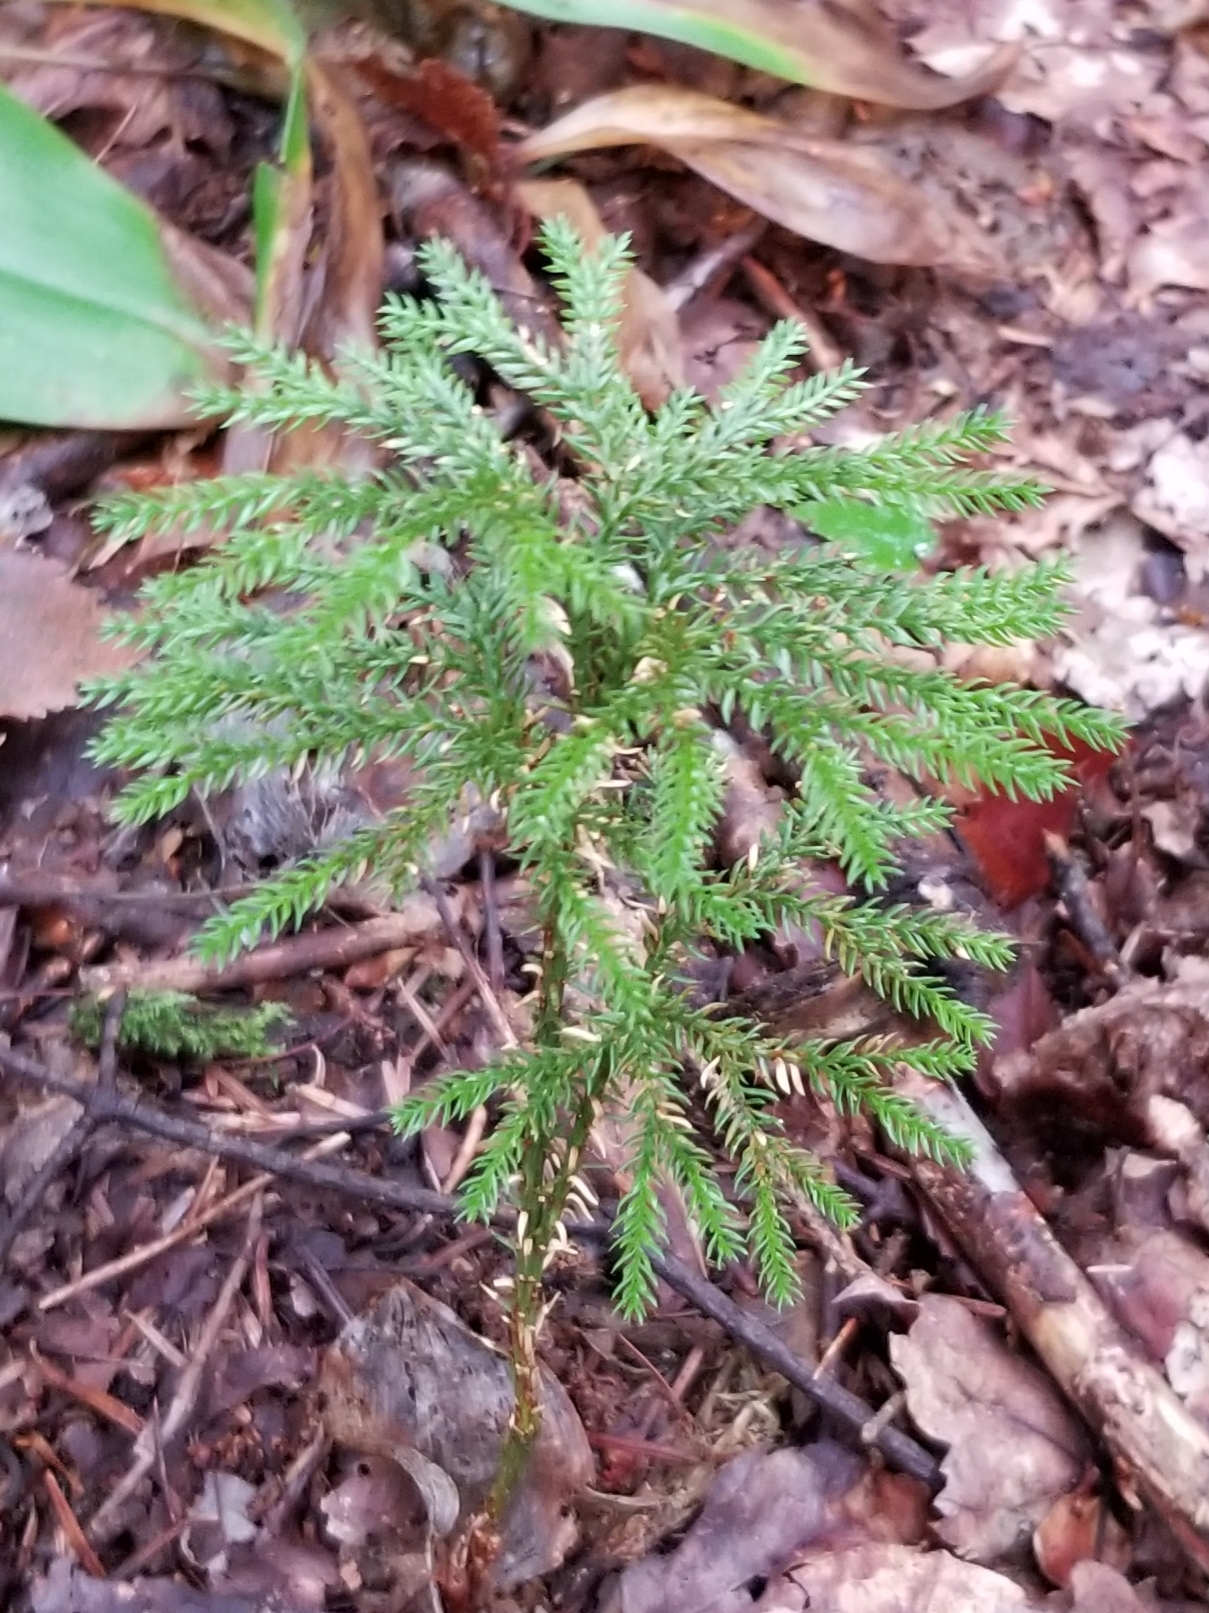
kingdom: Plantae
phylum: Tracheophyta
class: Lycopodiopsida
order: Lycopodiales
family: Lycopodiaceae
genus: Dendrolycopodium
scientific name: Dendrolycopodium dendroideum
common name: Northern tree-clubmoss
